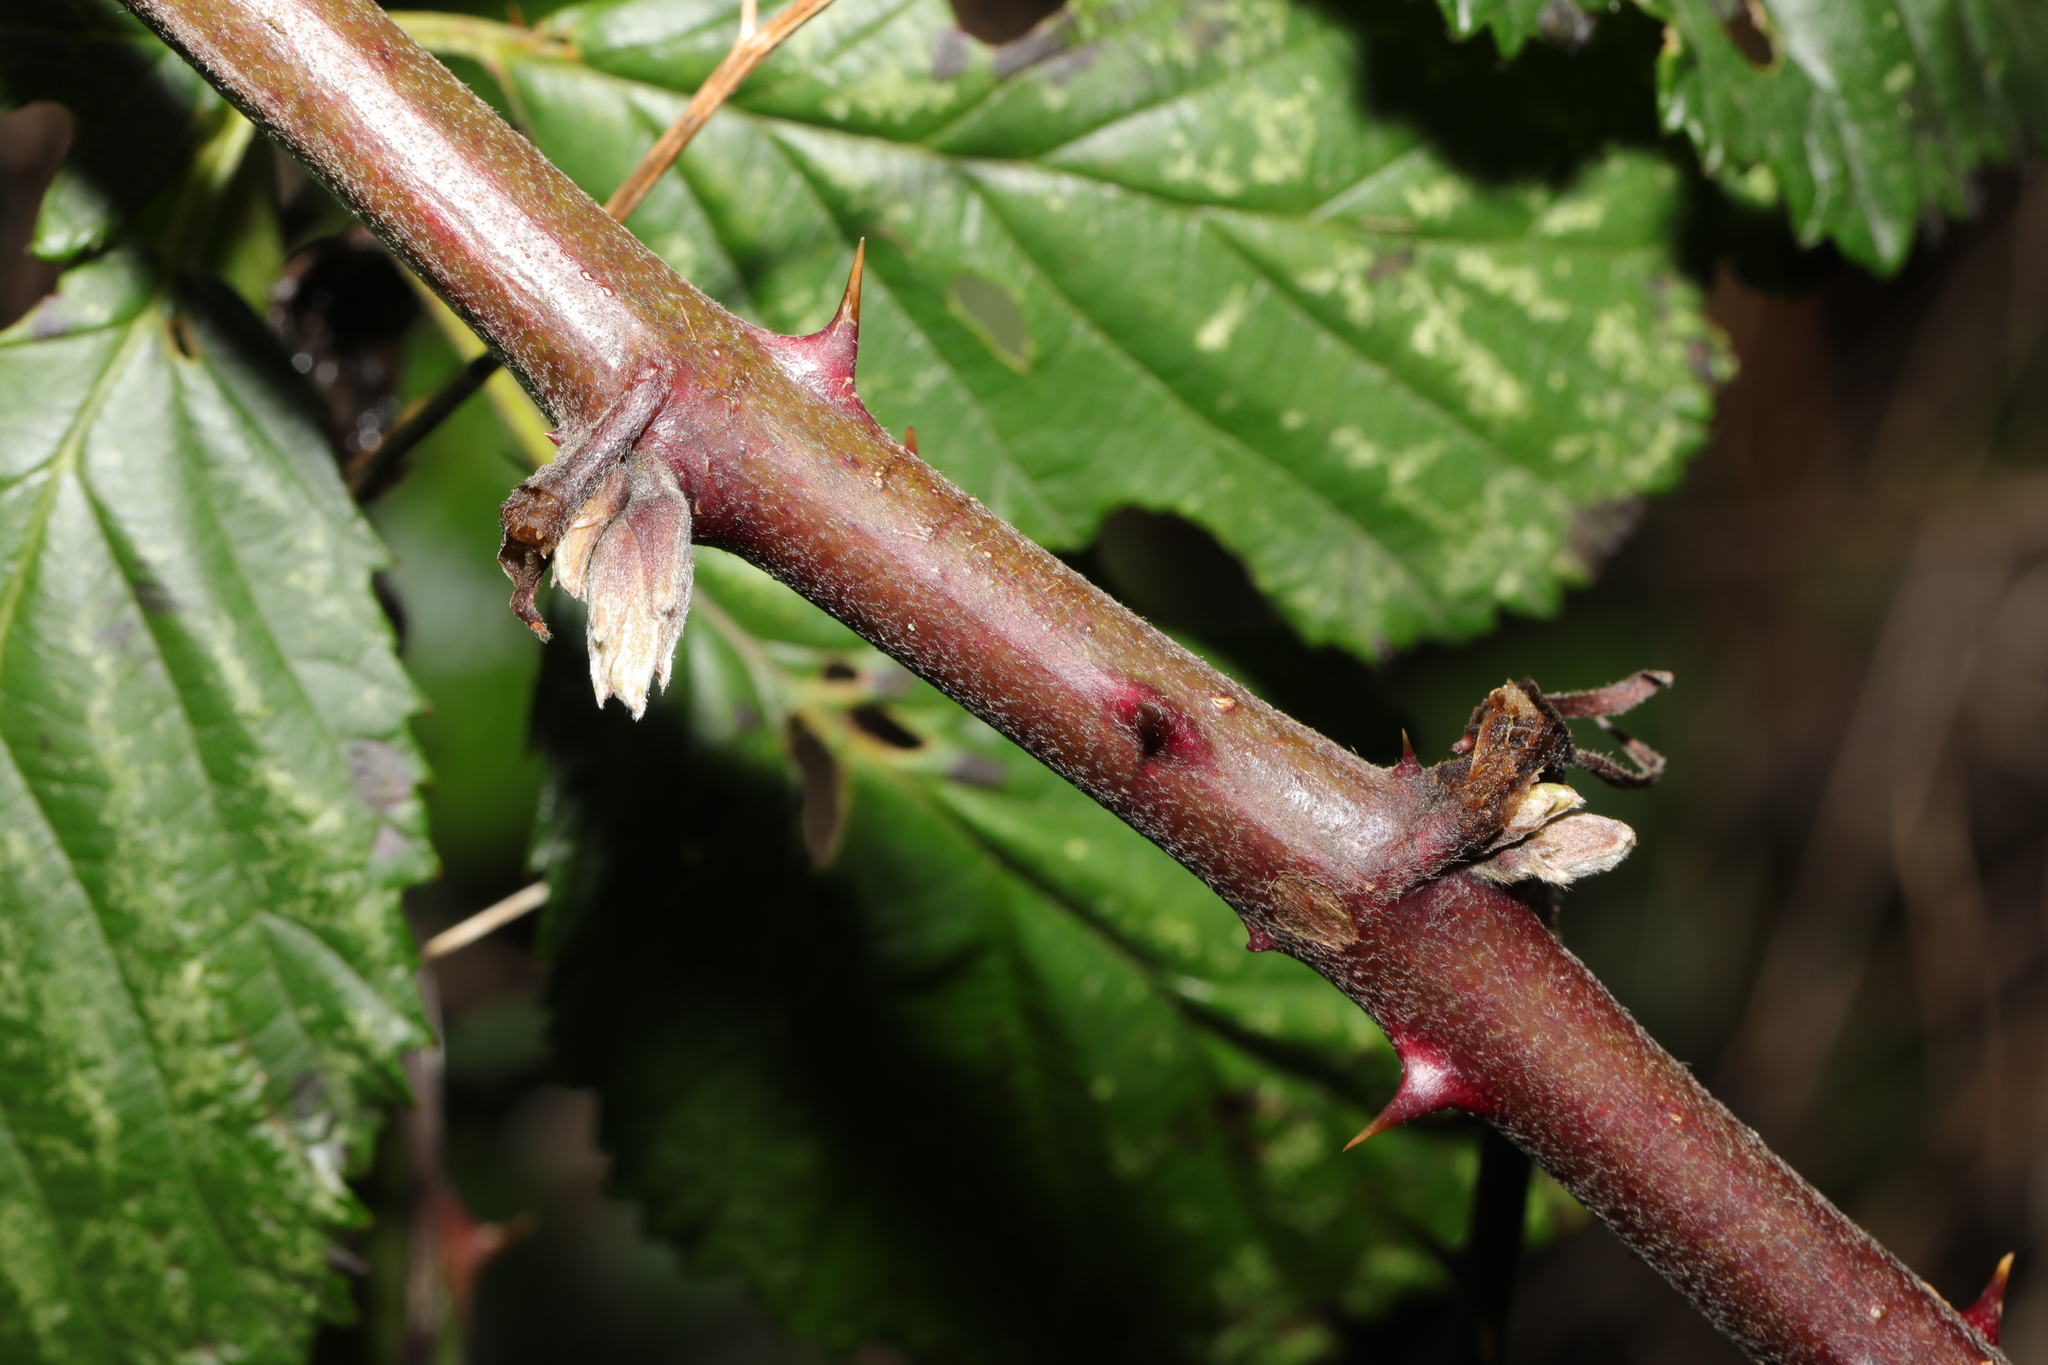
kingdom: Plantae
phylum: Tracheophyta
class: Magnoliopsida
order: Rosales
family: Rosaceae
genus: Rubus
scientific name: Rubus armeniacus
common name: Himalayan blackberry
